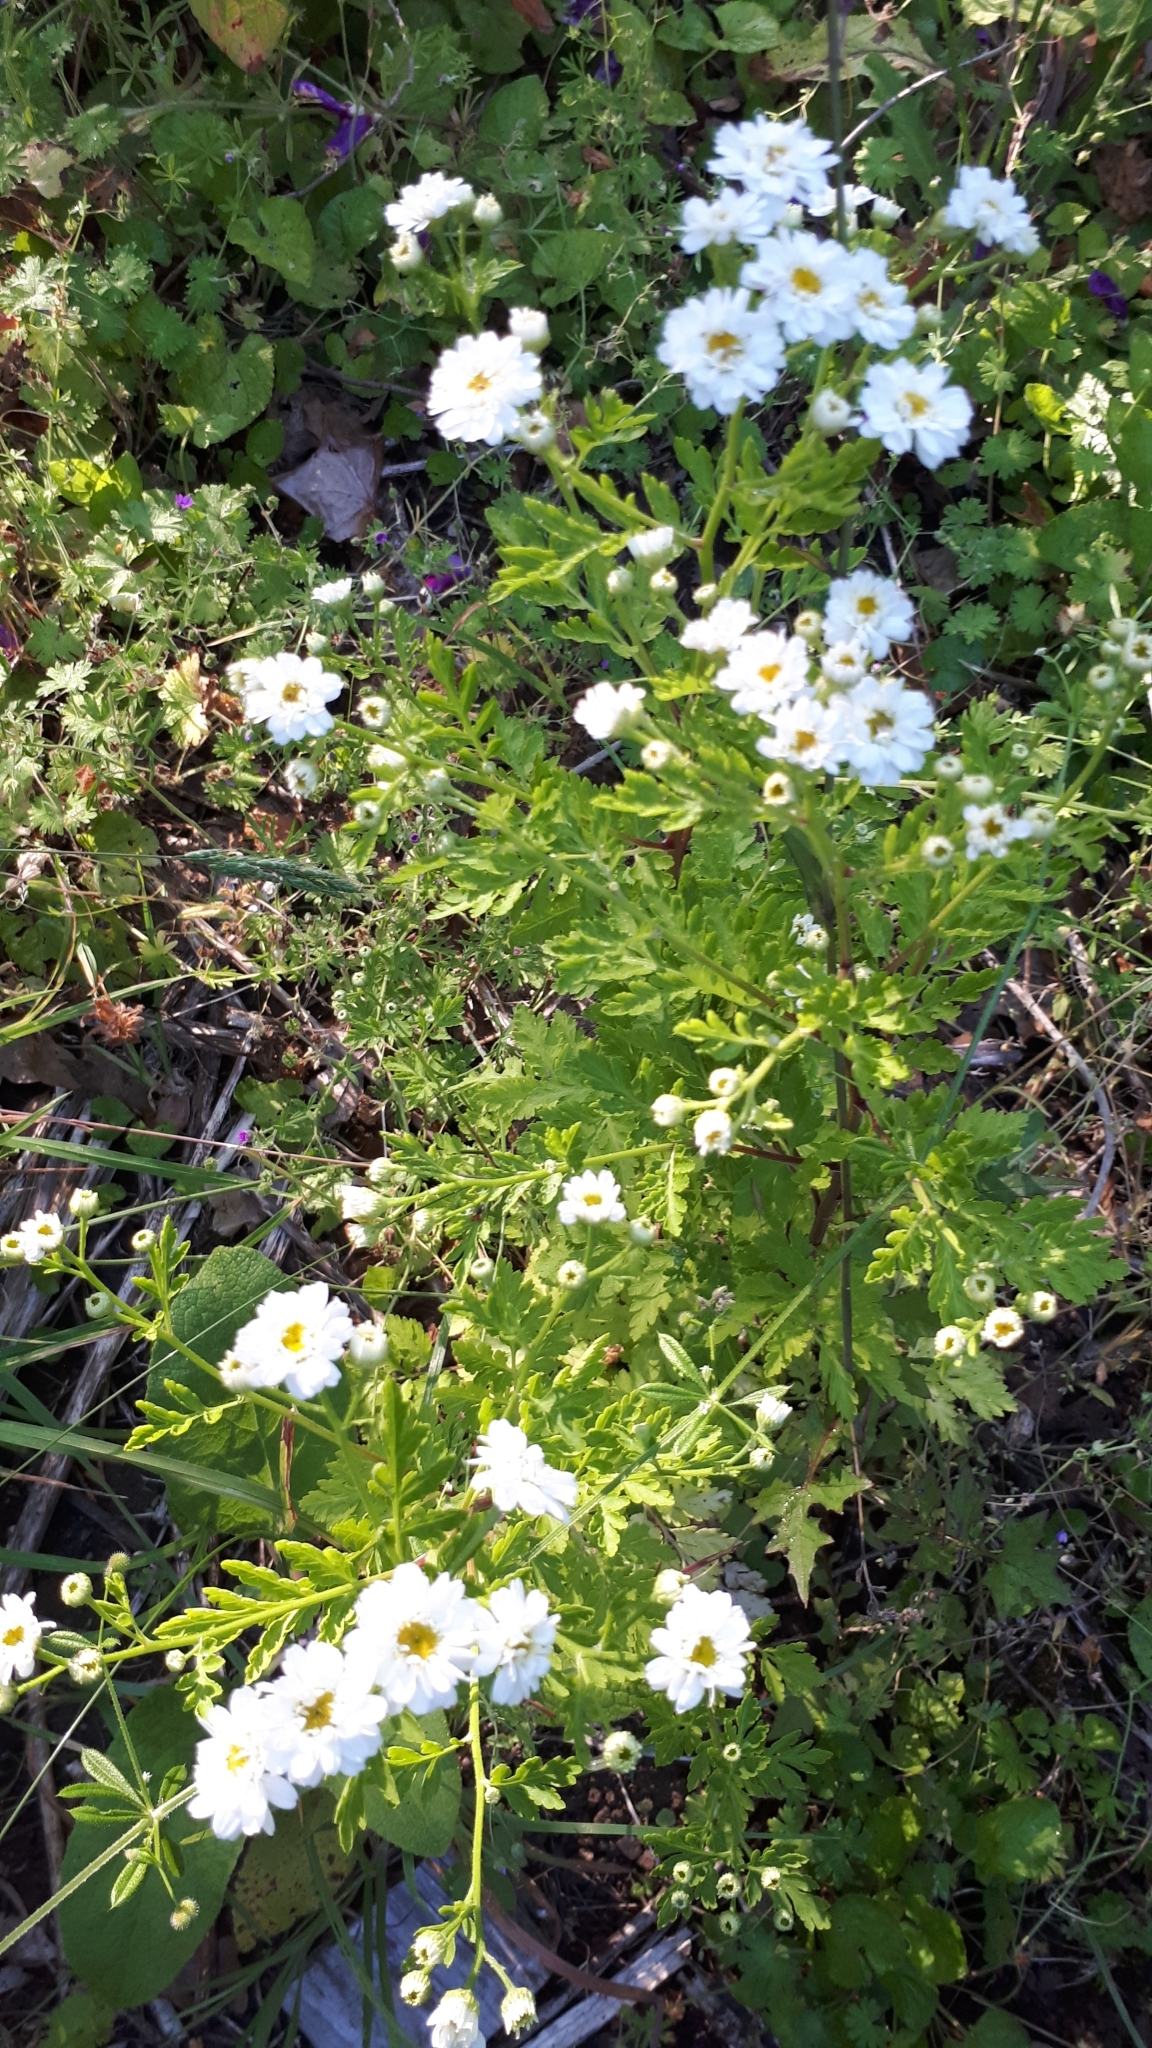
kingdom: Plantae
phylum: Tracheophyta
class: Magnoliopsida
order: Asterales
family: Asteraceae
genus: Tanacetum
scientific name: Tanacetum parthenium
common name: Feverfew
